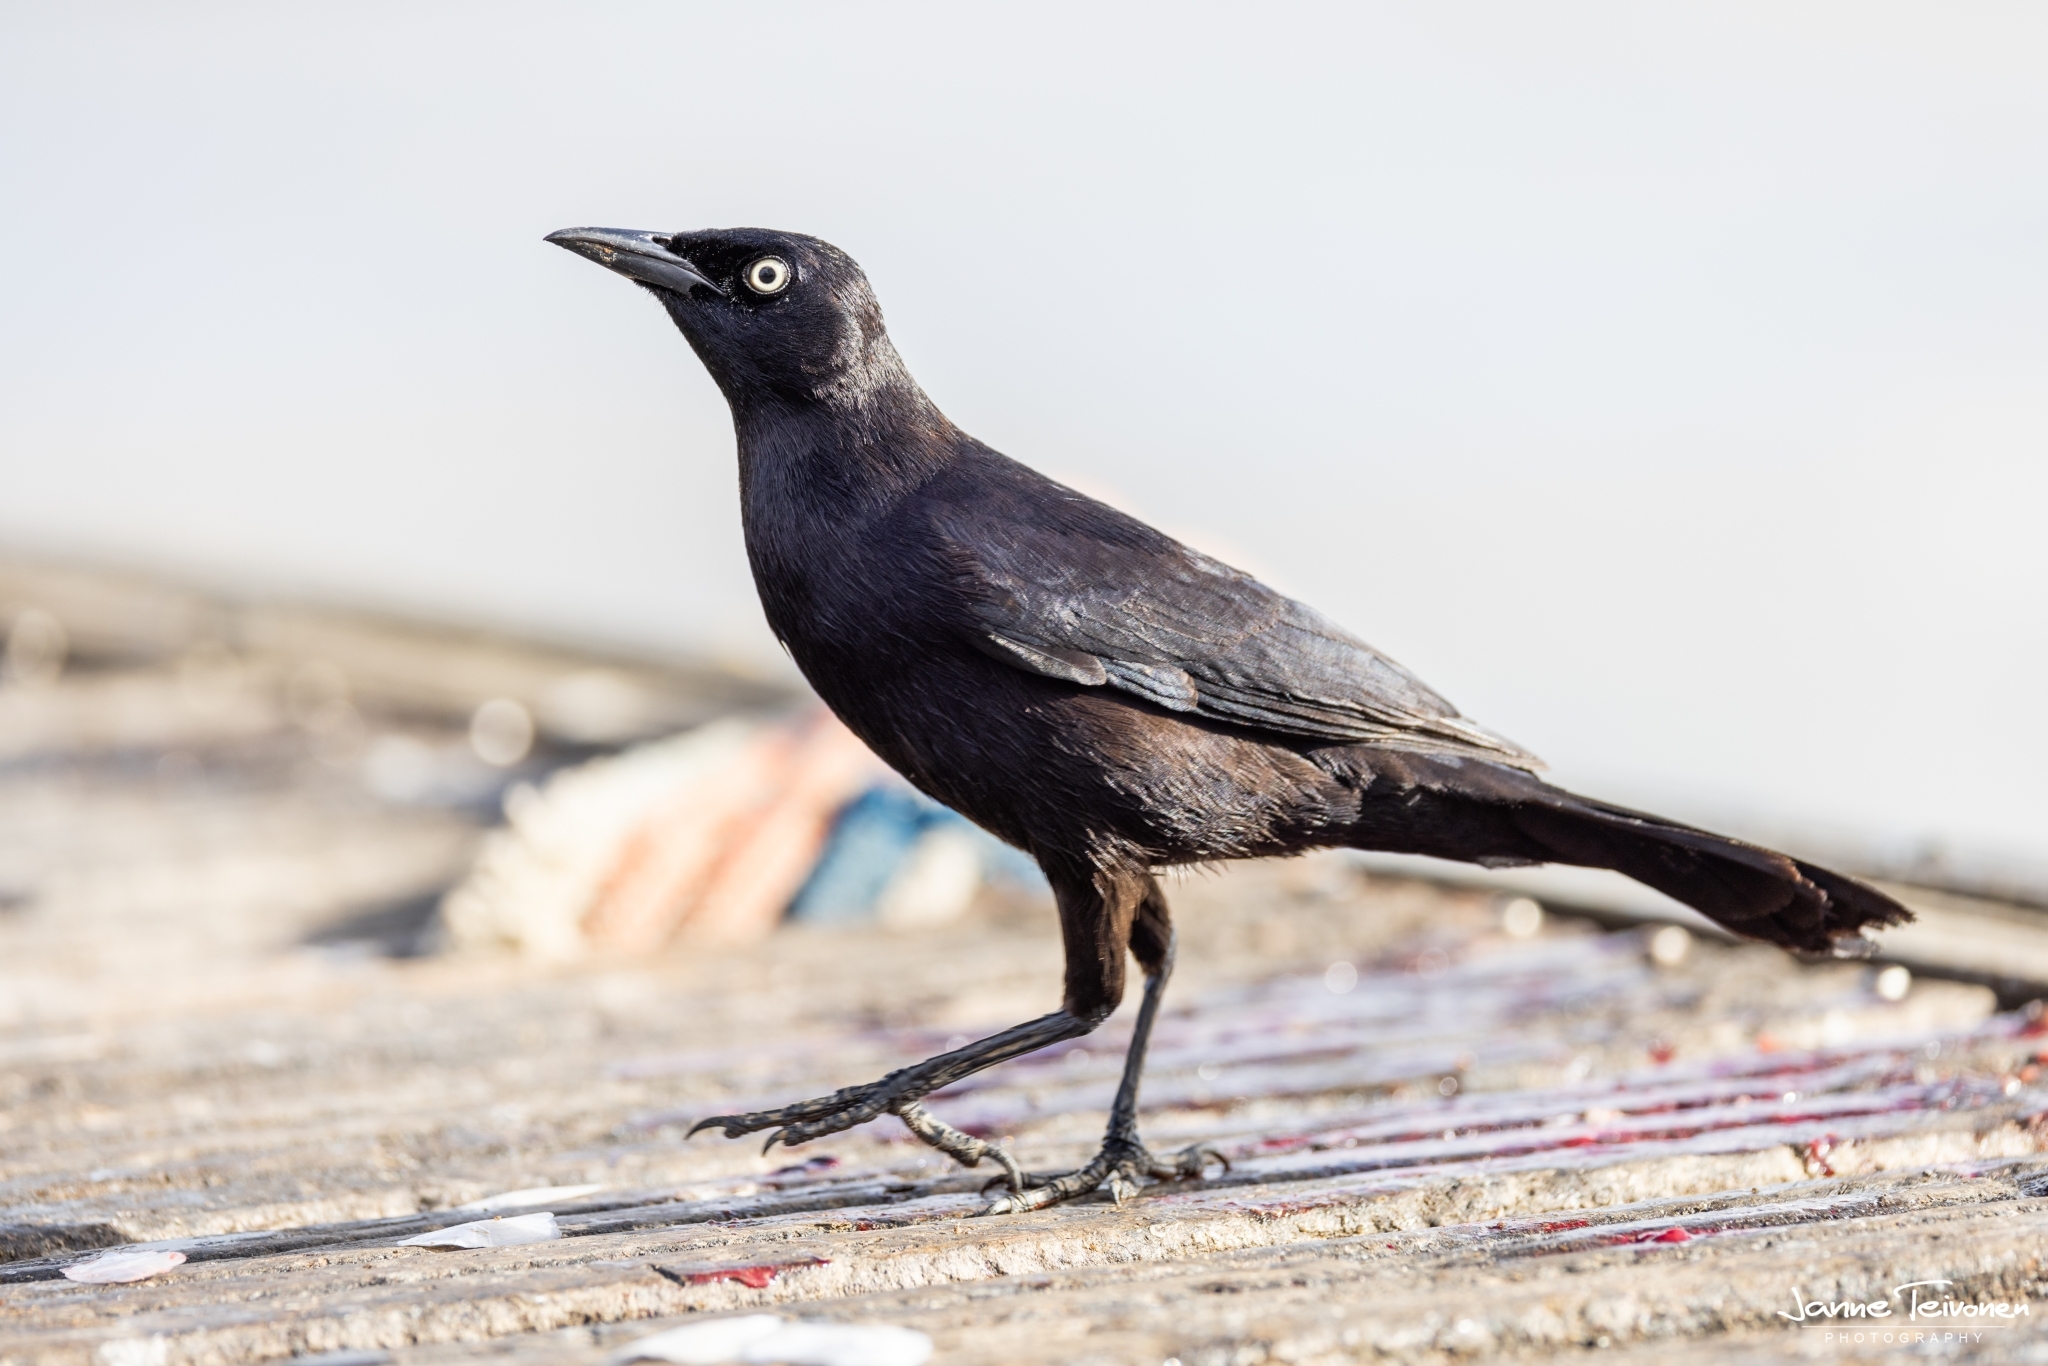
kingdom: Animalia
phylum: Chordata
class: Aves
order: Passeriformes
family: Icteridae
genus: Quiscalus
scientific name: Quiscalus lugubris
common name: Carib grackle
